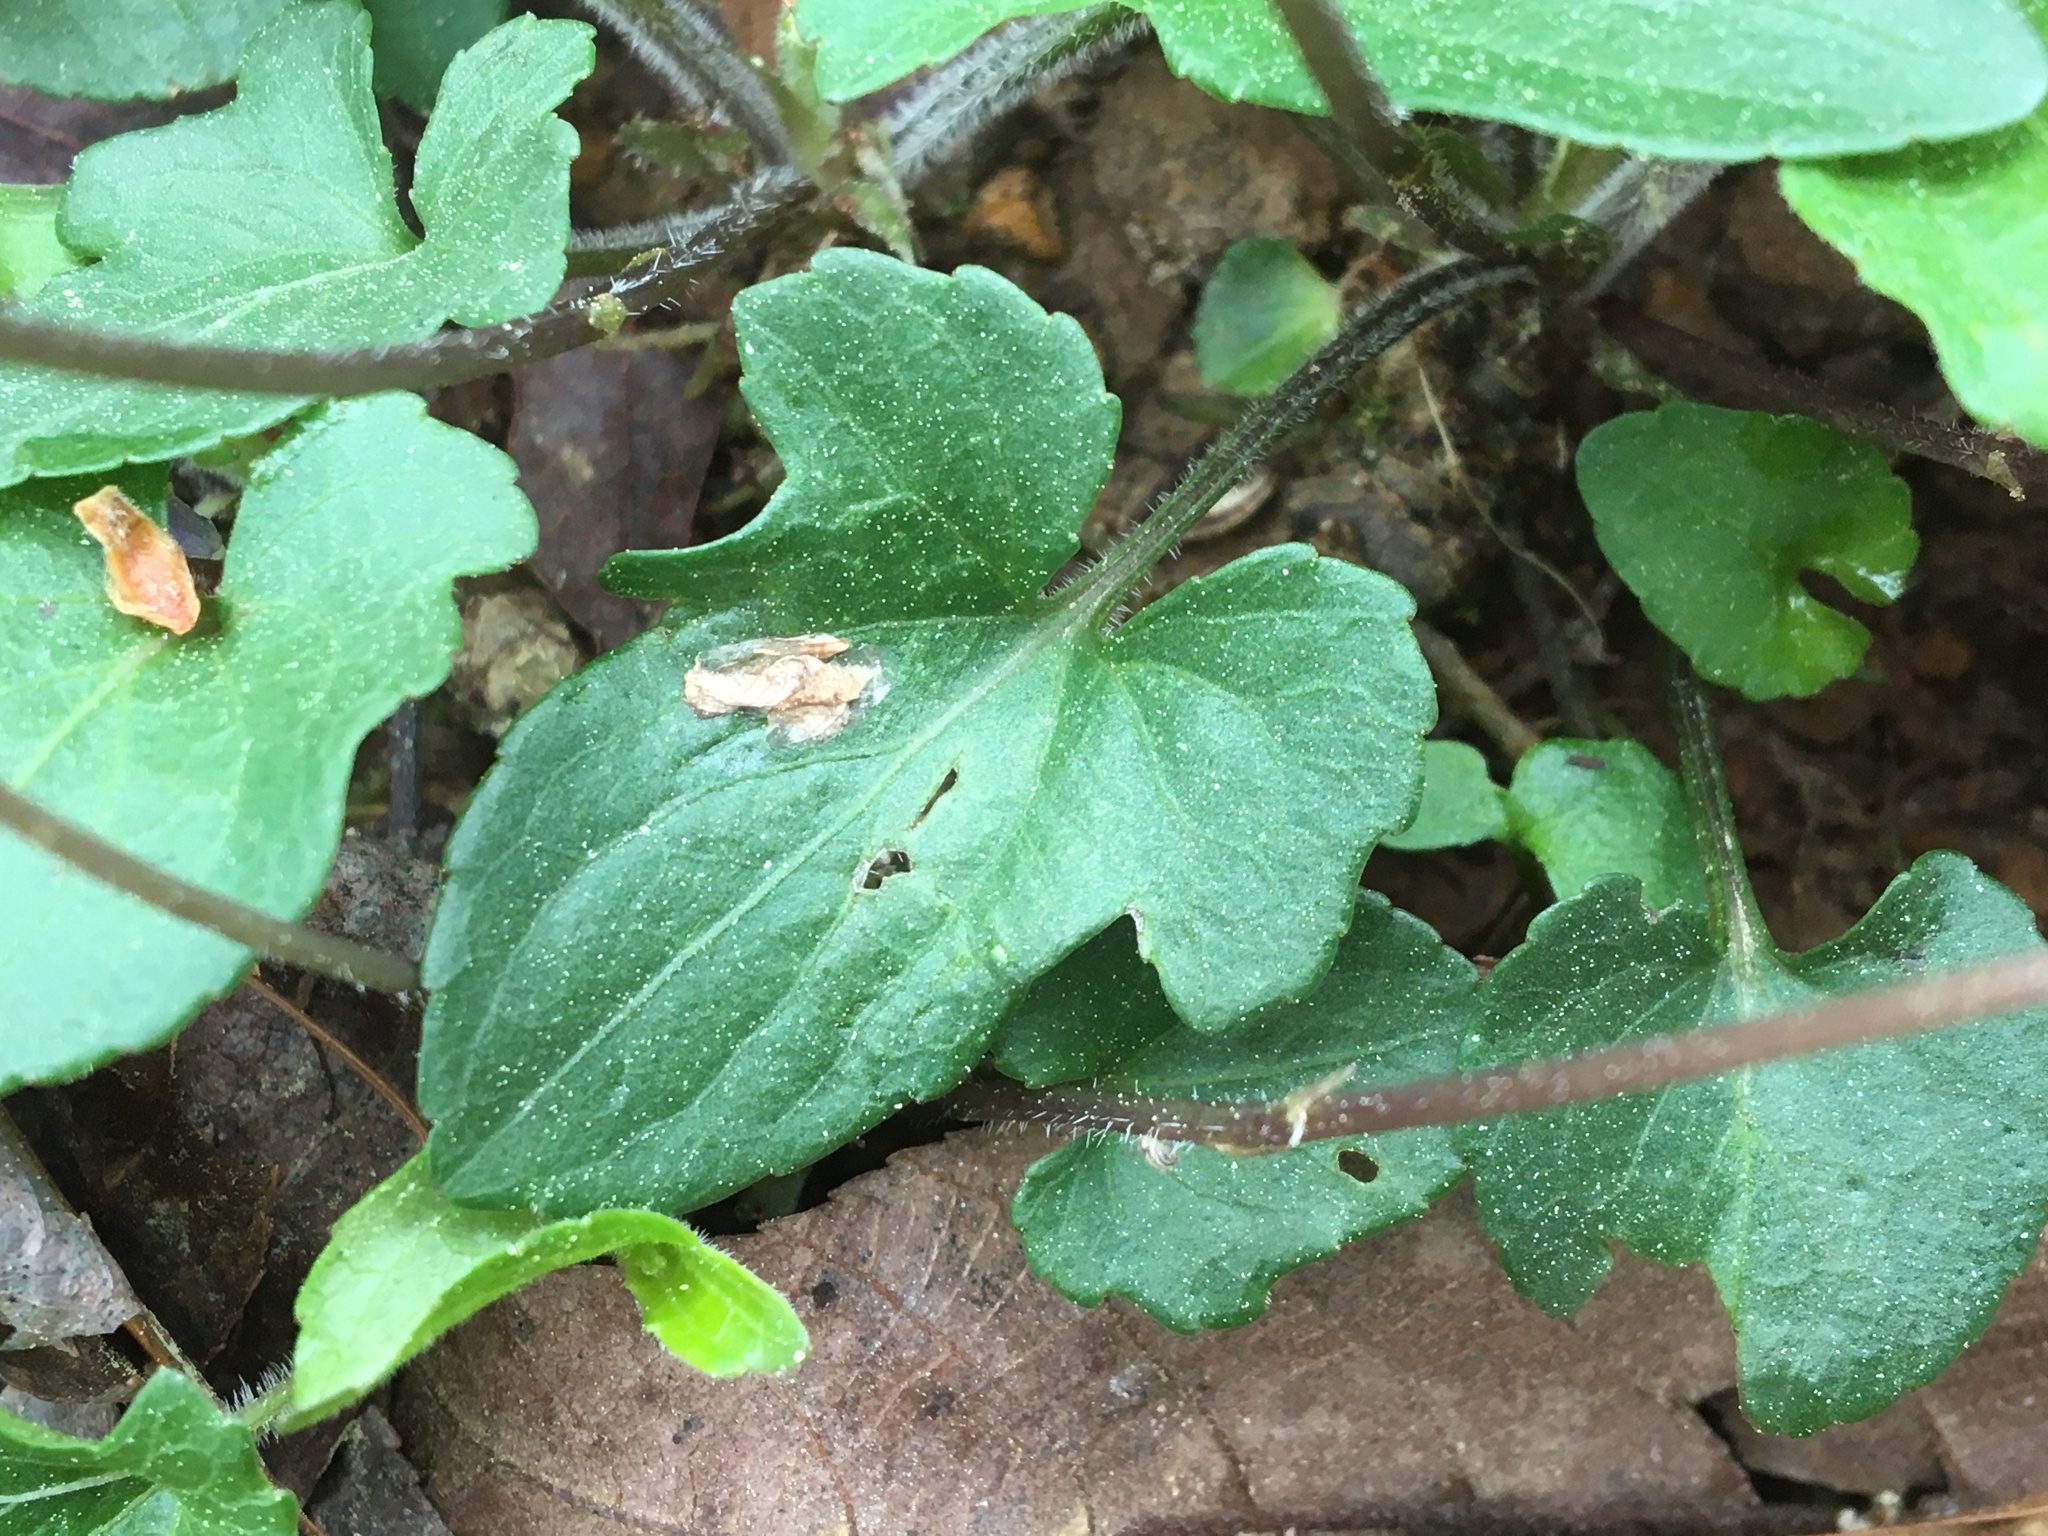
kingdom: Plantae
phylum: Tracheophyta
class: Magnoliopsida
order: Malpighiales
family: Violaceae
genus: Viola
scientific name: Viola palmata
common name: Early blue violet
